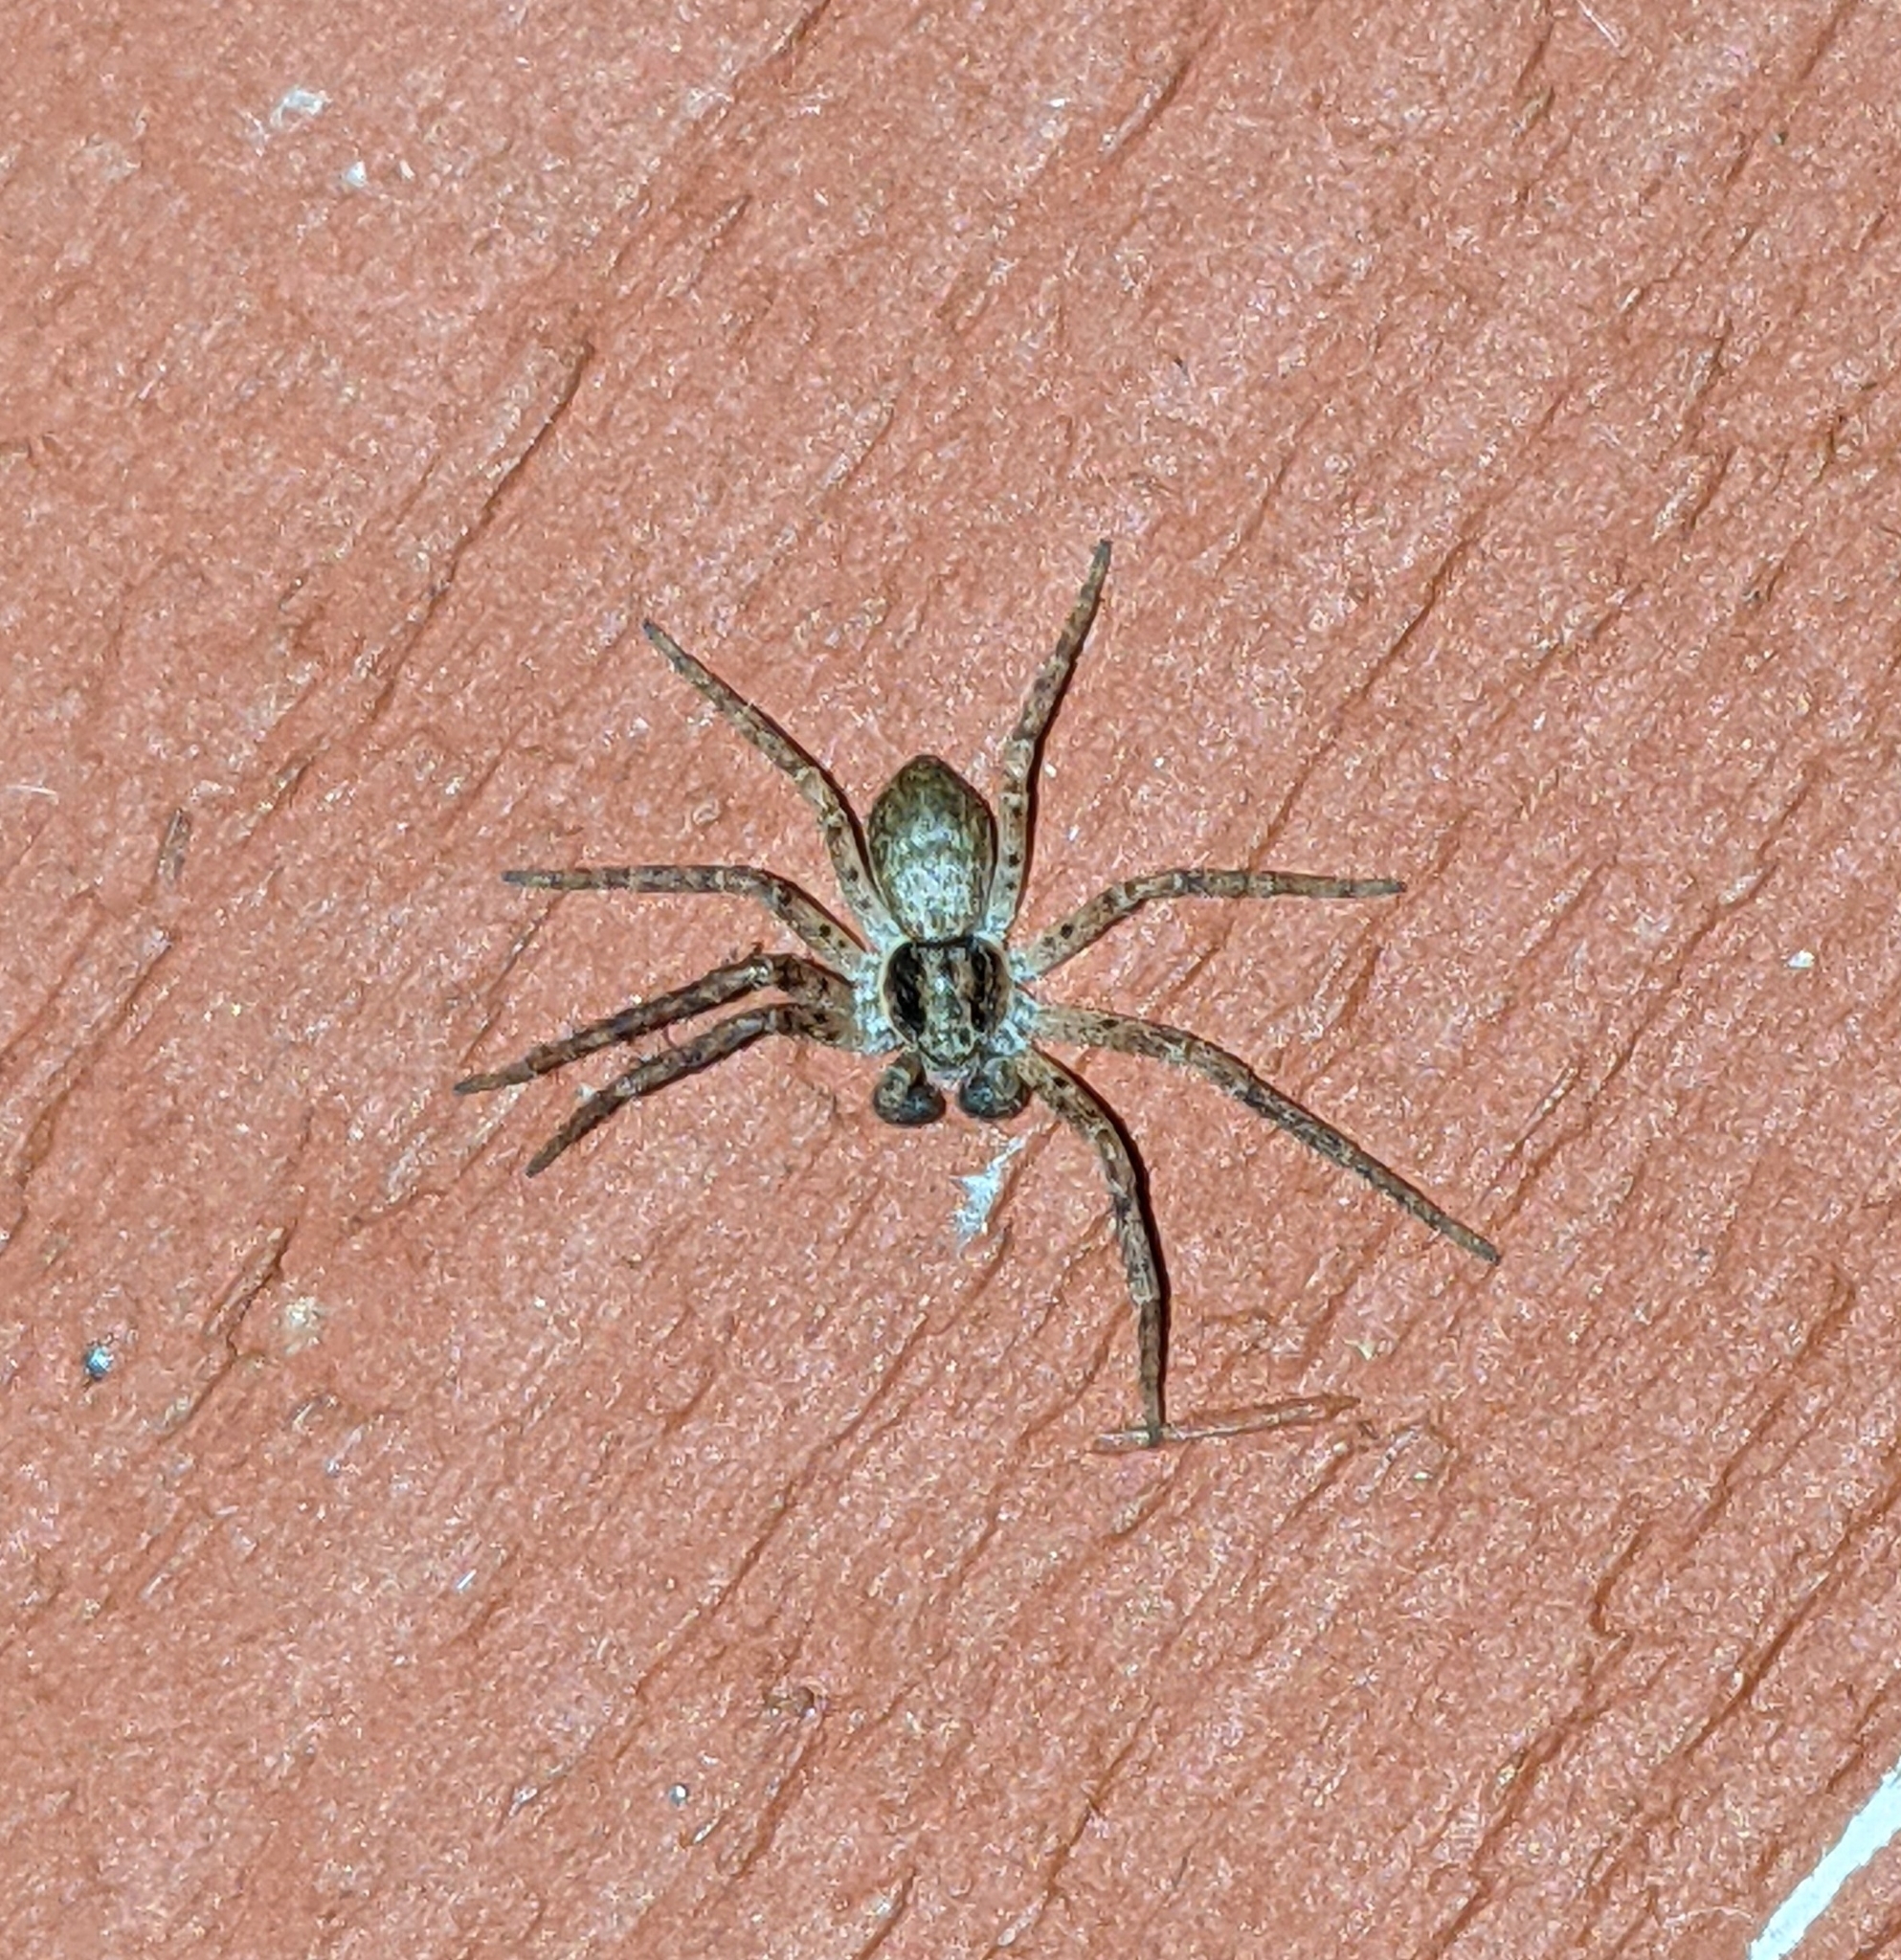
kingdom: Animalia
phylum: Arthropoda
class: Arachnida
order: Araneae
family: Philodromidae
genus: Philodromus
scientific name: Philodromus dispar
